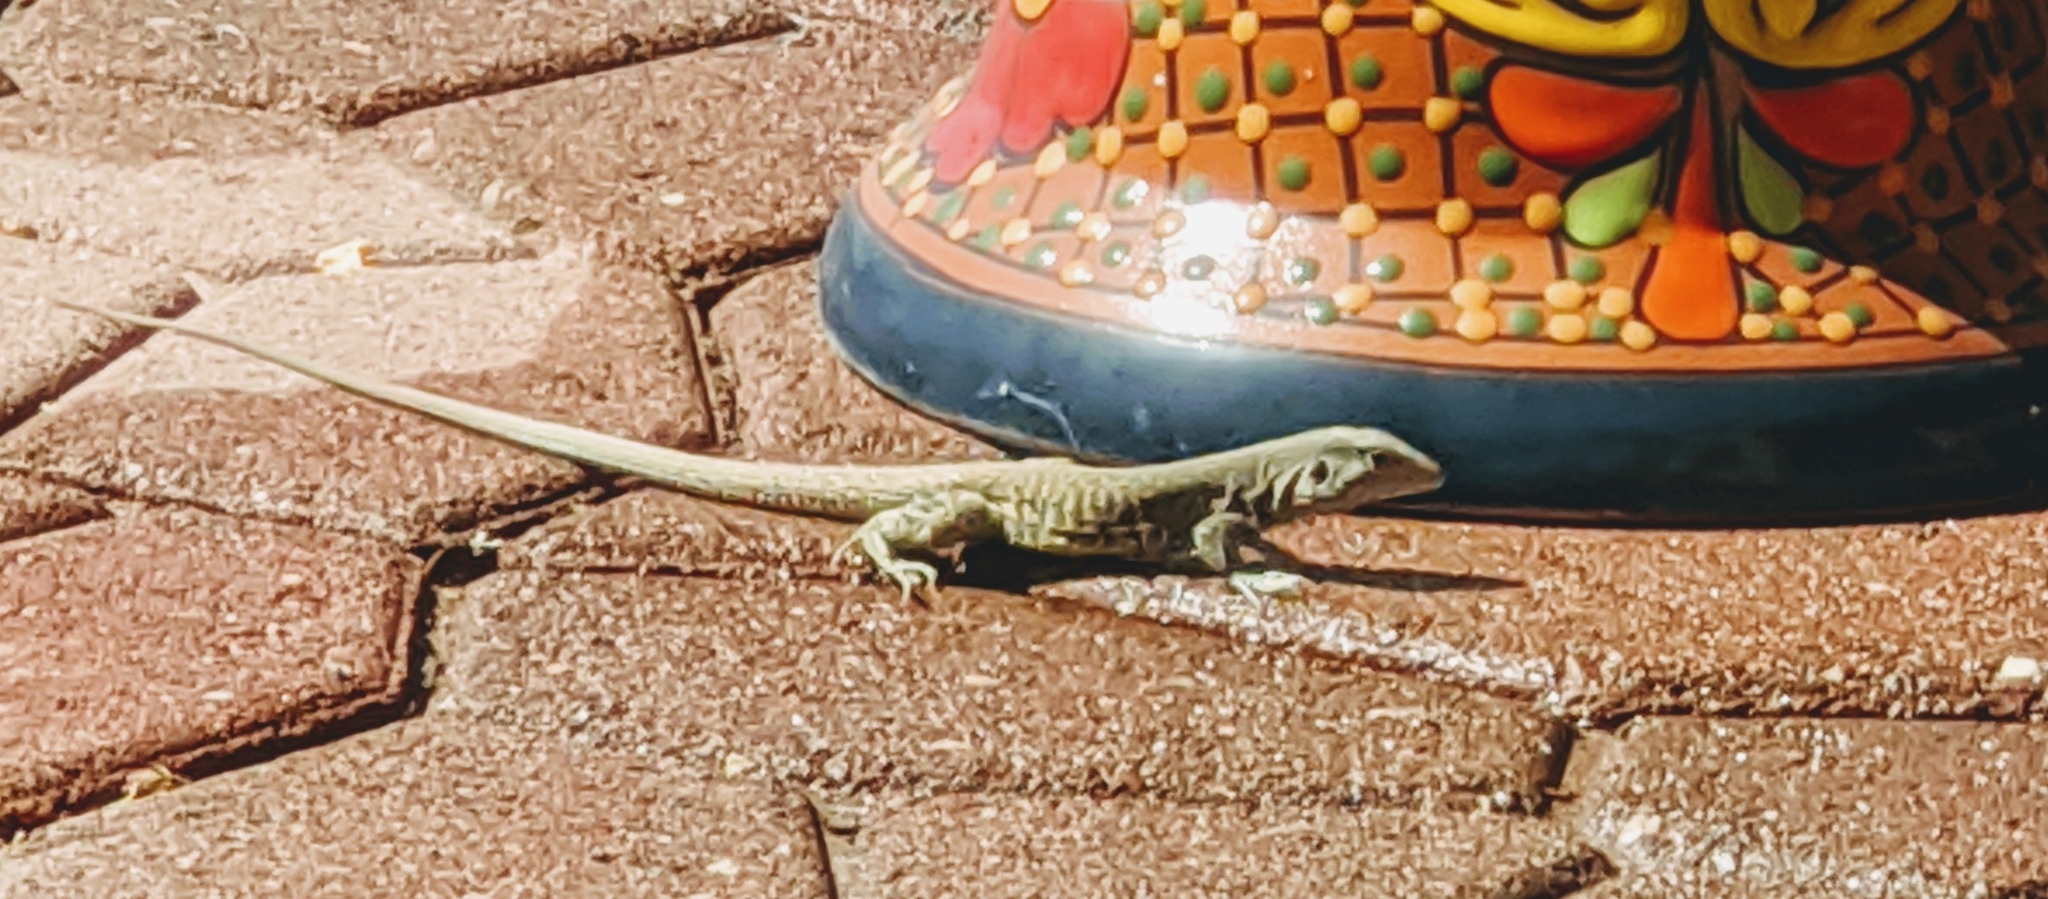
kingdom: Animalia
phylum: Chordata
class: Squamata
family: Teiidae
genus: Aspidoscelis
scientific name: Aspidoscelis marmoratus
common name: Eastern marbled whiptail [reticuloriens]
